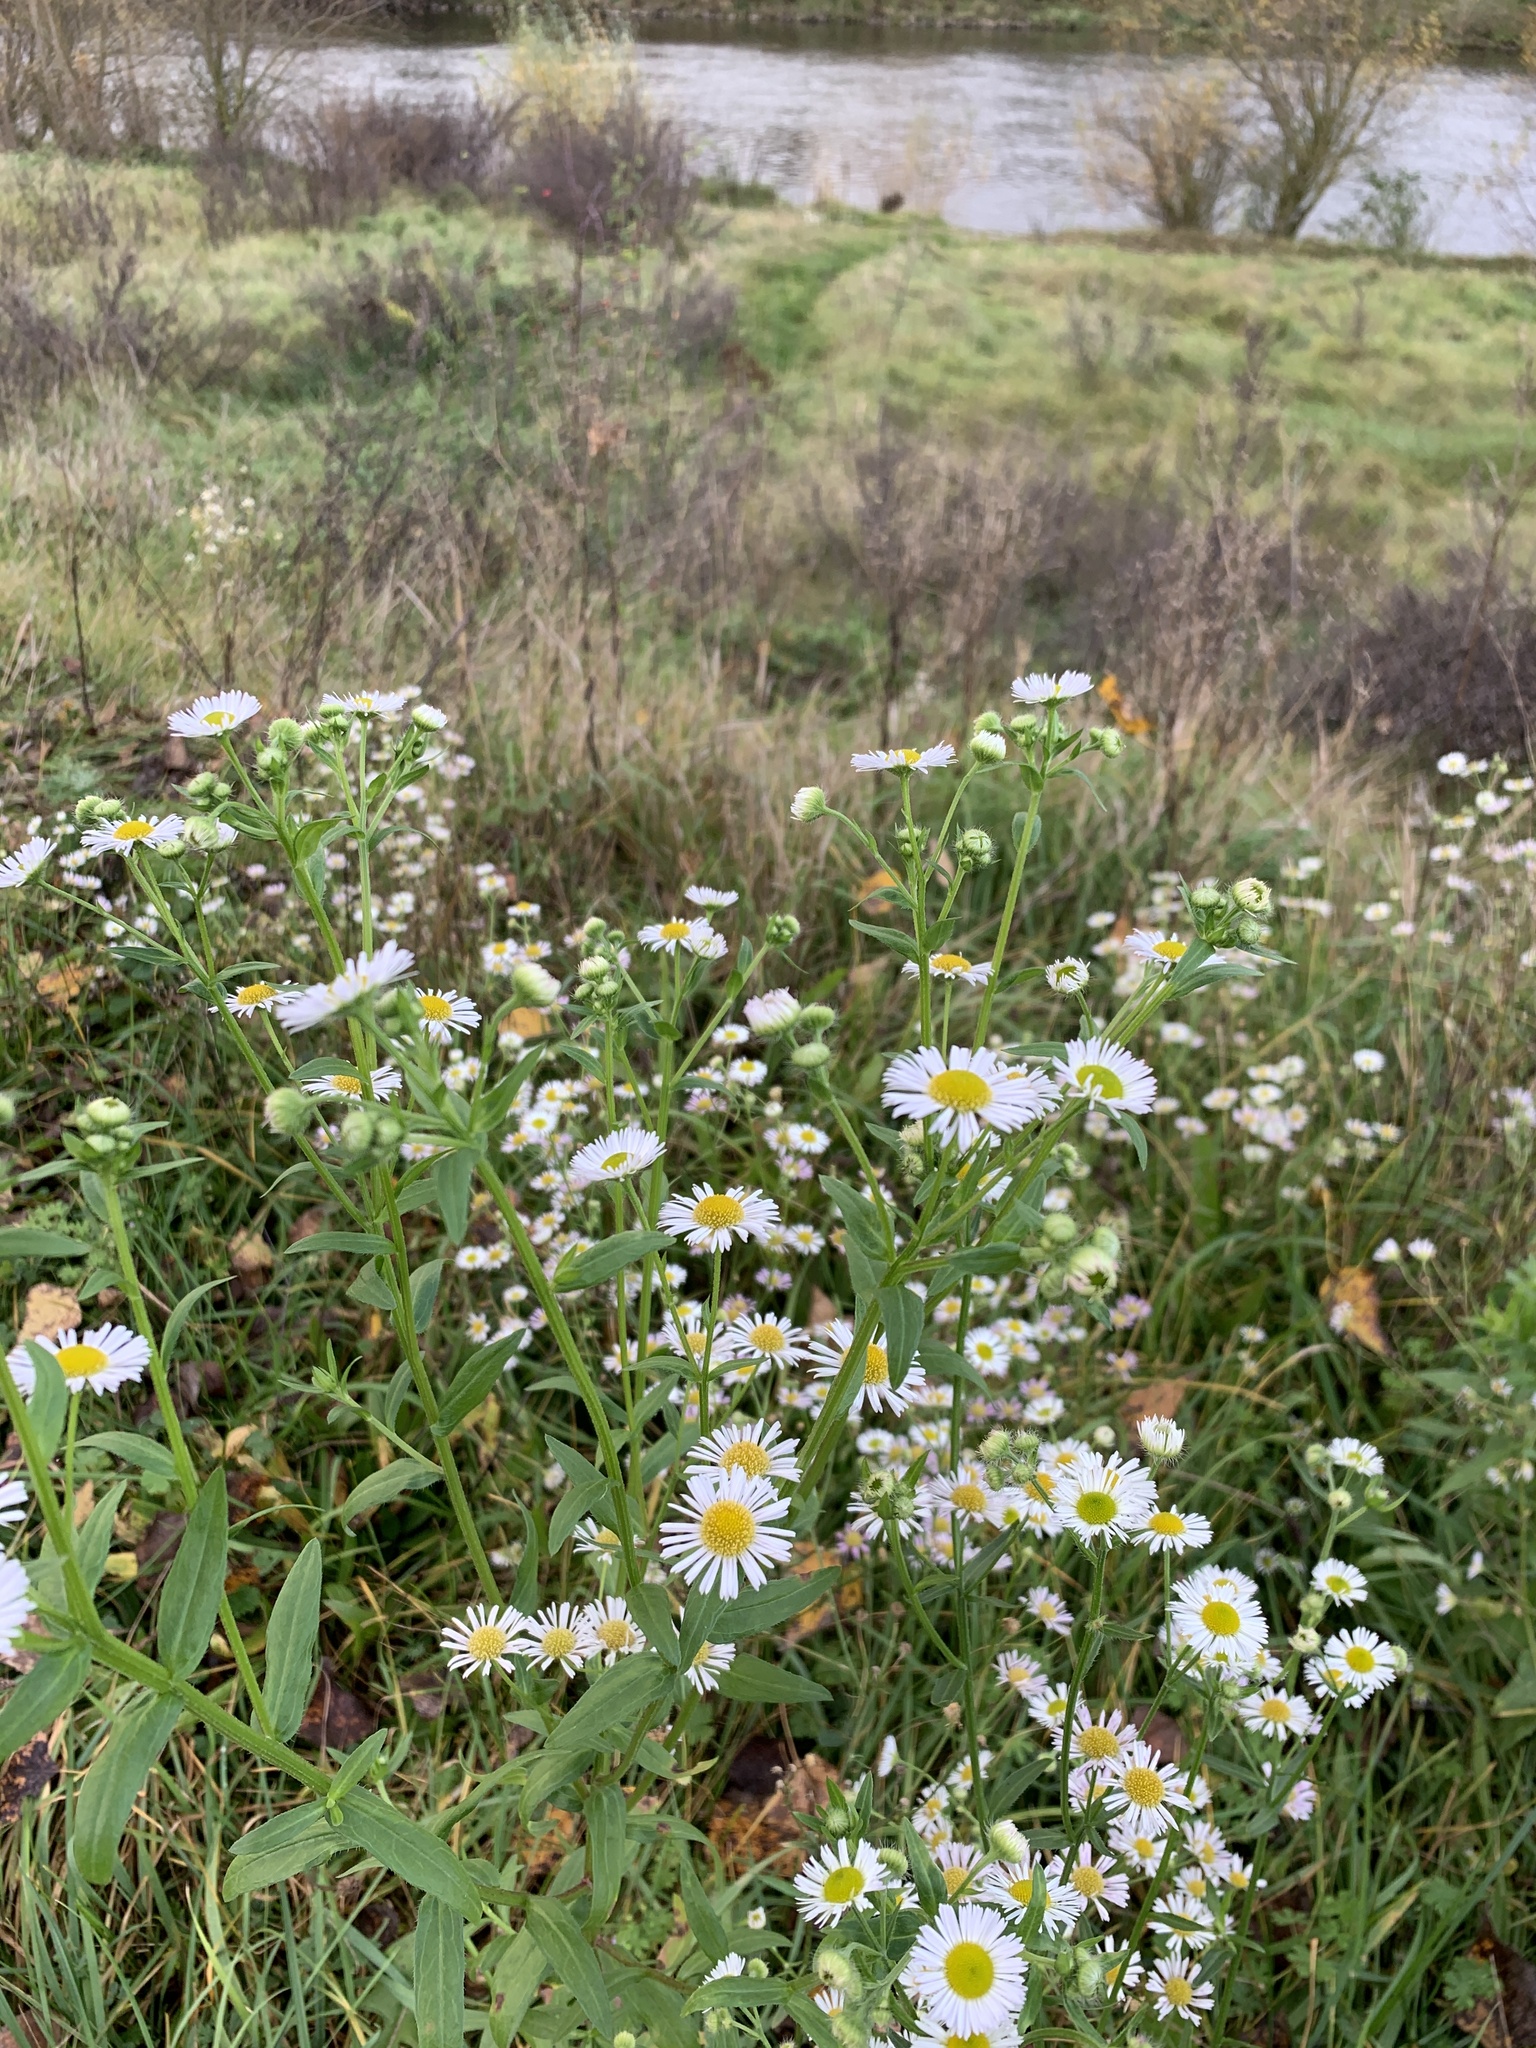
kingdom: Plantae
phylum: Tracheophyta
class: Magnoliopsida
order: Asterales
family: Asteraceae
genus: Erigeron
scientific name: Erigeron annuus
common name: Tall fleabane
